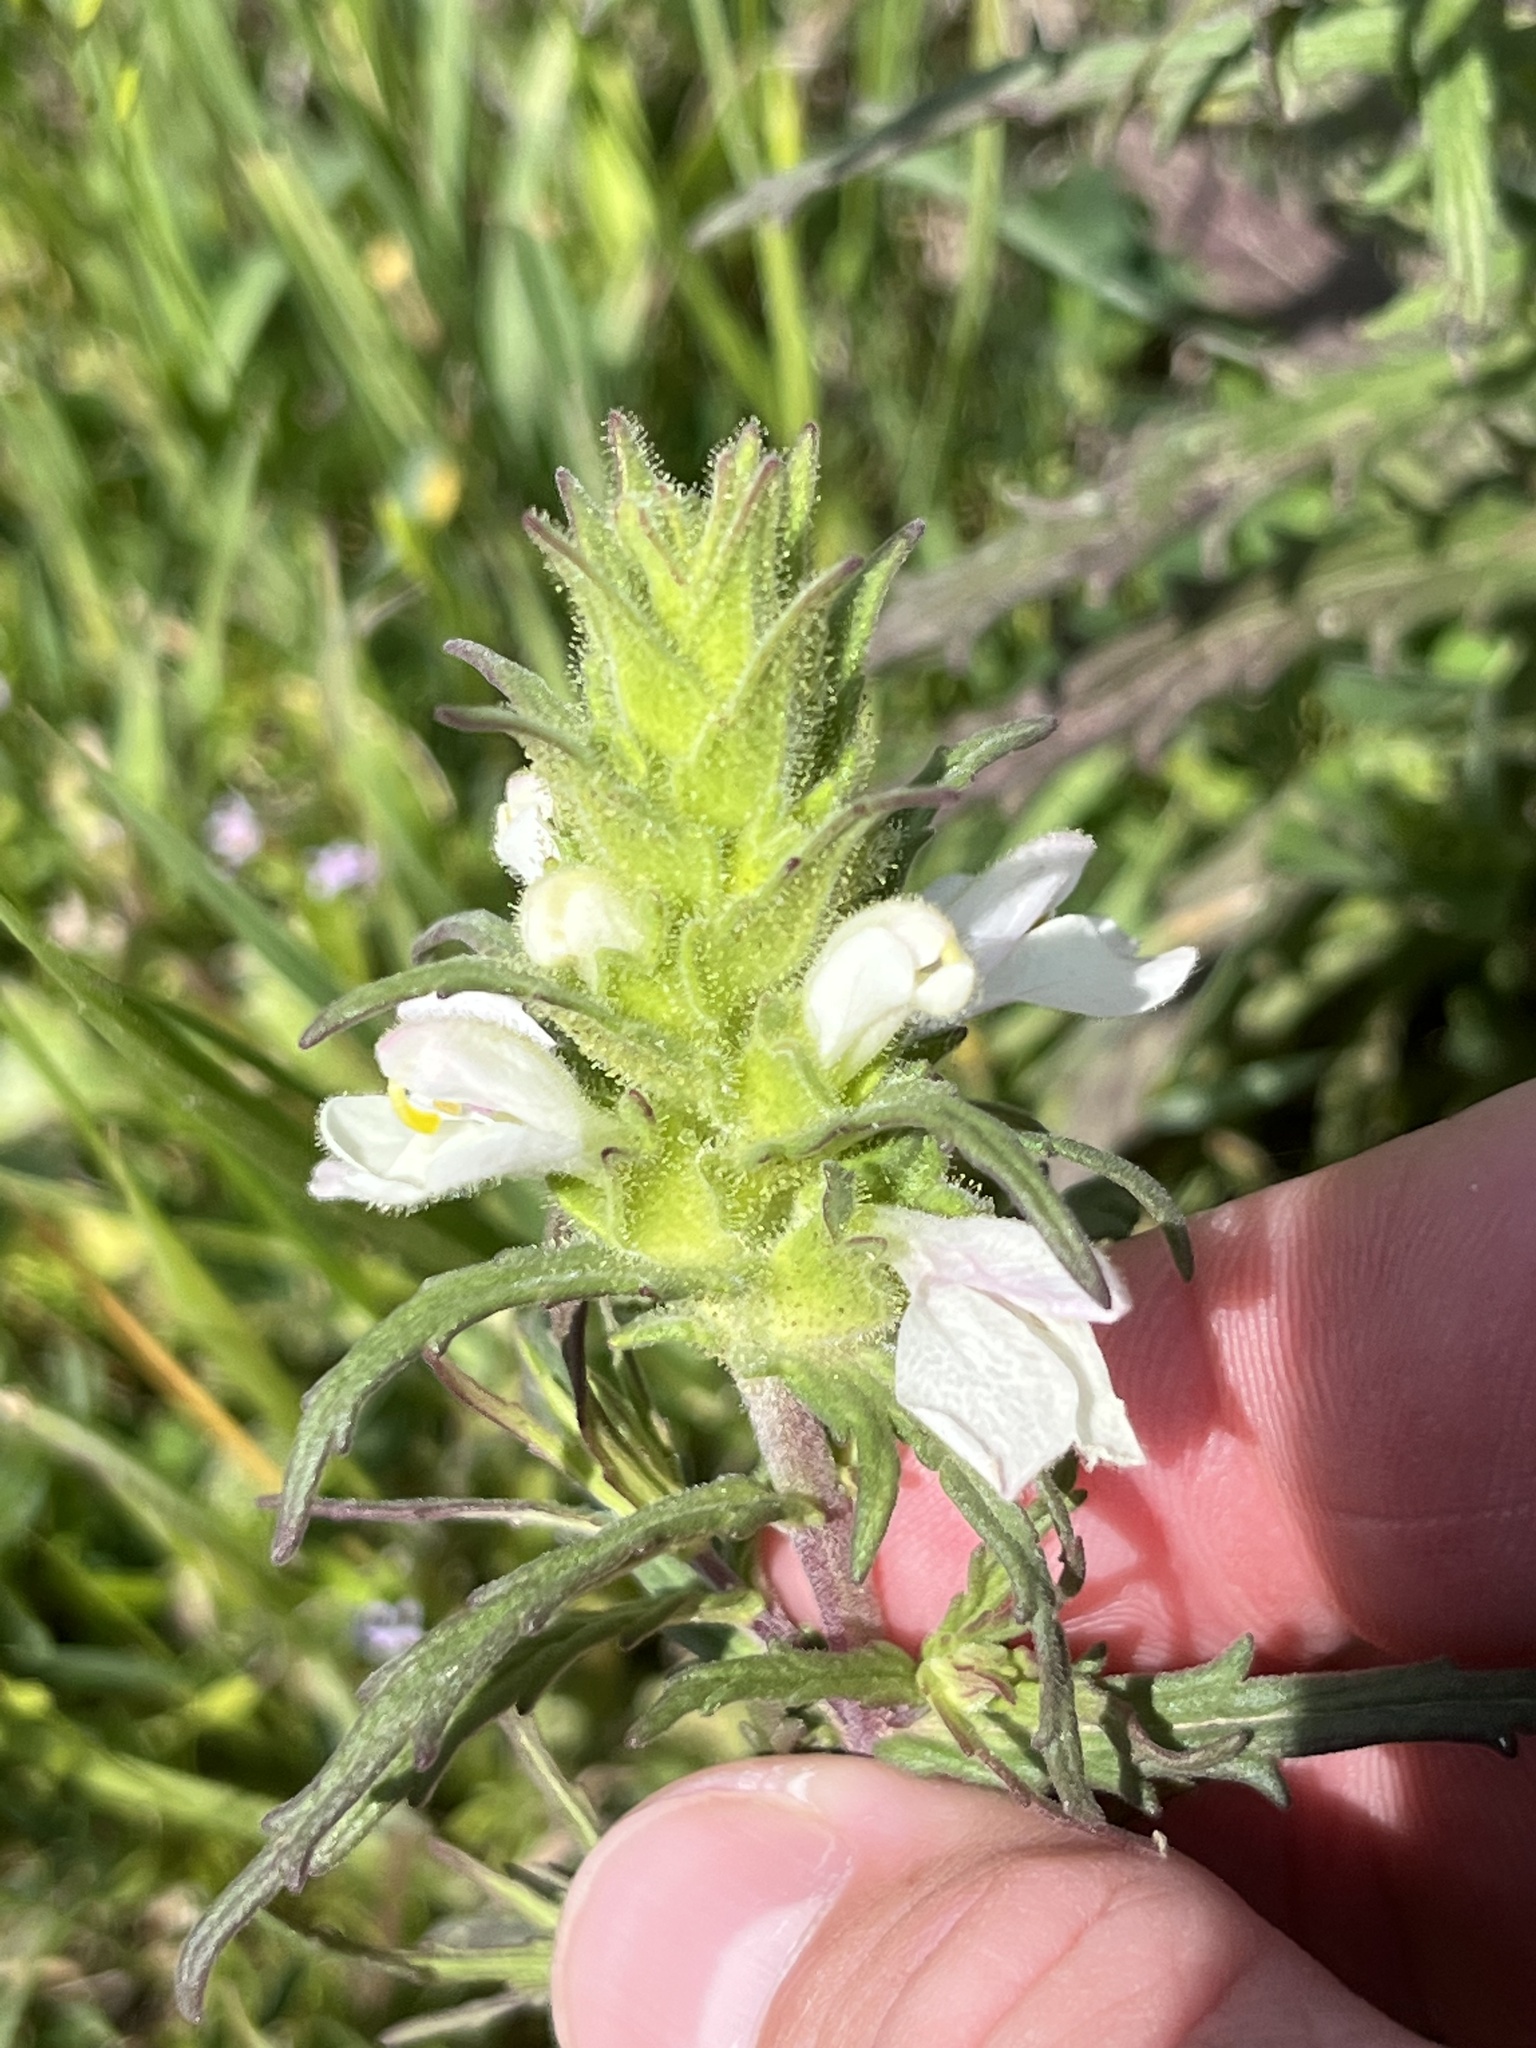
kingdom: Plantae
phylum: Tracheophyta
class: Magnoliopsida
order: Lamiales
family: Orobanchaceae
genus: Bellardia
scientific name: Bellardia trixago
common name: Mediterranean lineseed
